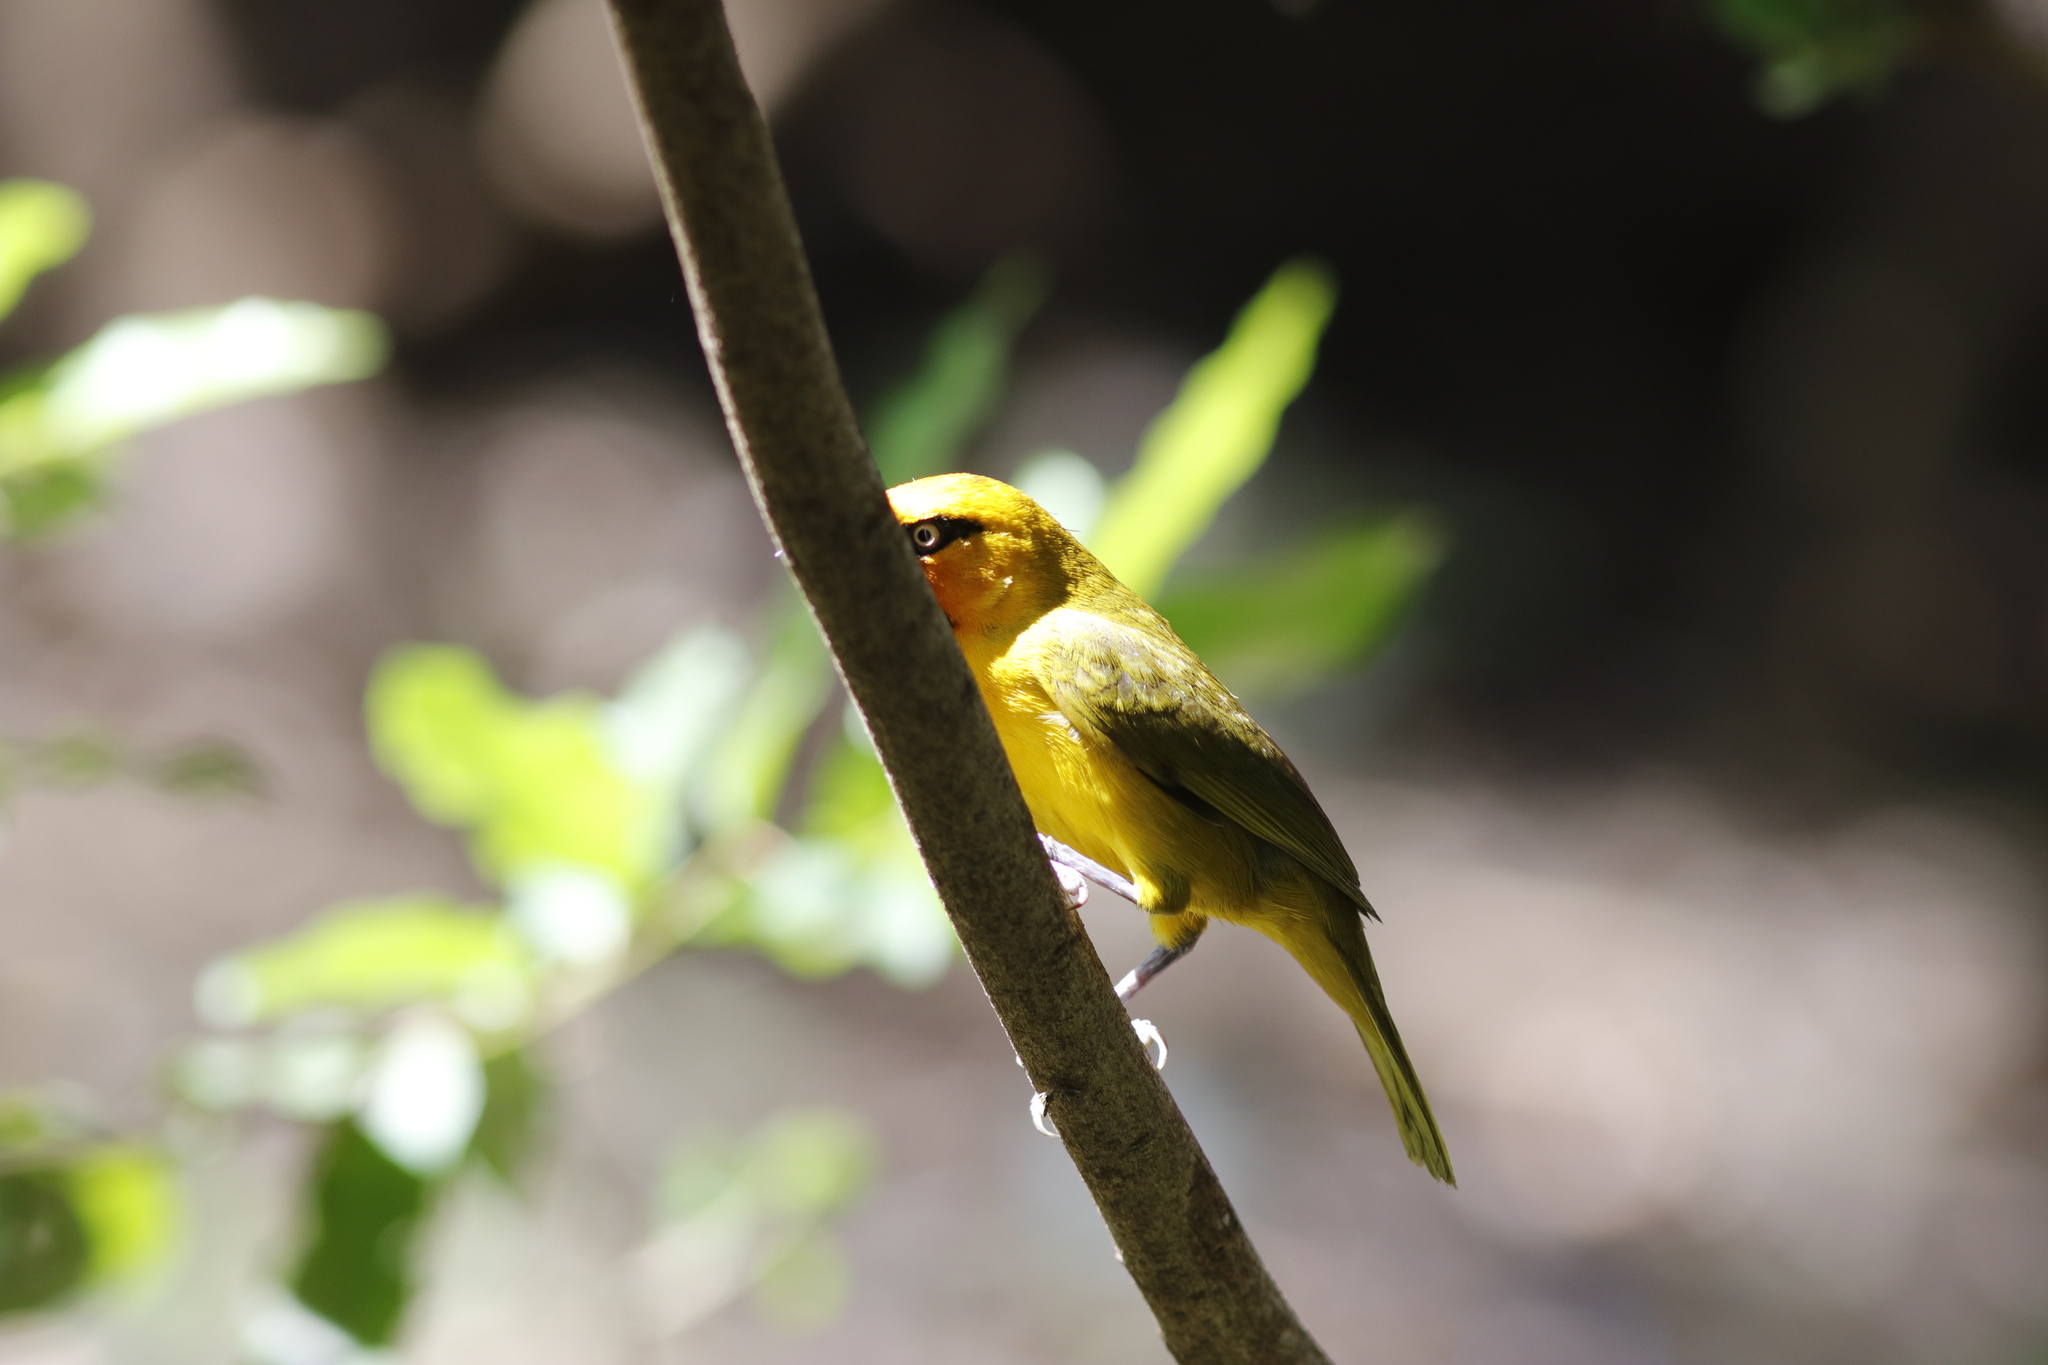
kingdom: Animalia
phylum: Chordata
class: Aves
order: Passeriformes
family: Ploceidae
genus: Ploceus
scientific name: Ploceus ocularis
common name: Spectacled weaver
